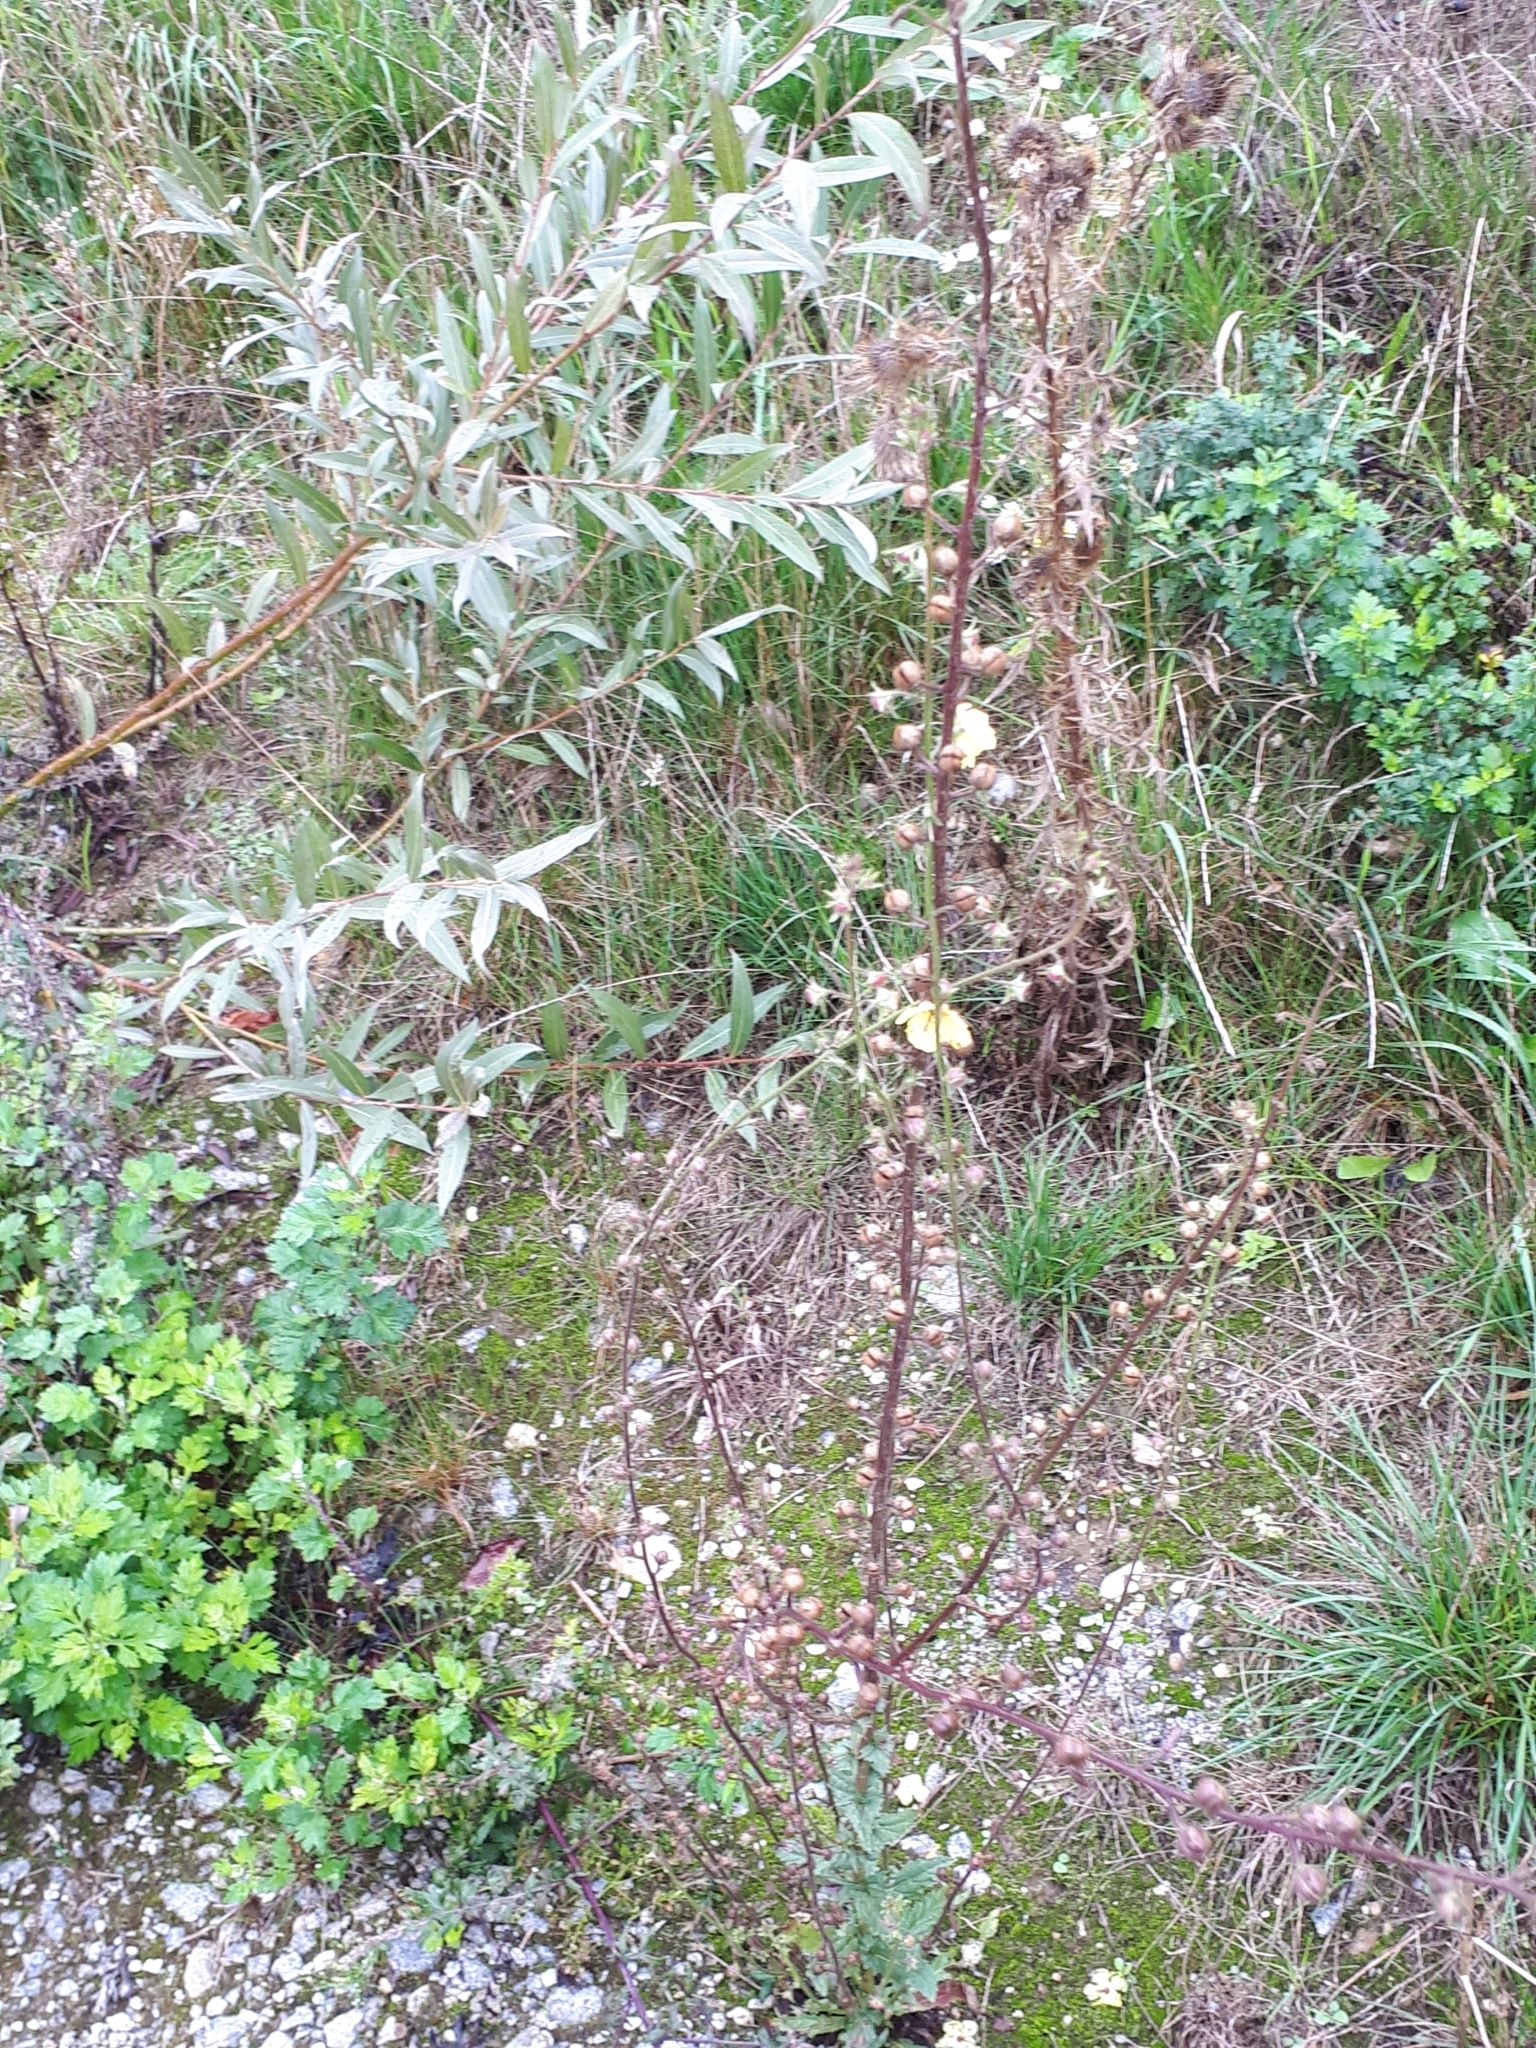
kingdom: Plantae
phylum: Tracheophyta
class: Magnoliopsida
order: Lamiales
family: Scrophulariaceae
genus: Verbascum
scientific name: Verbascum blattaria
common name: Moth mullein
